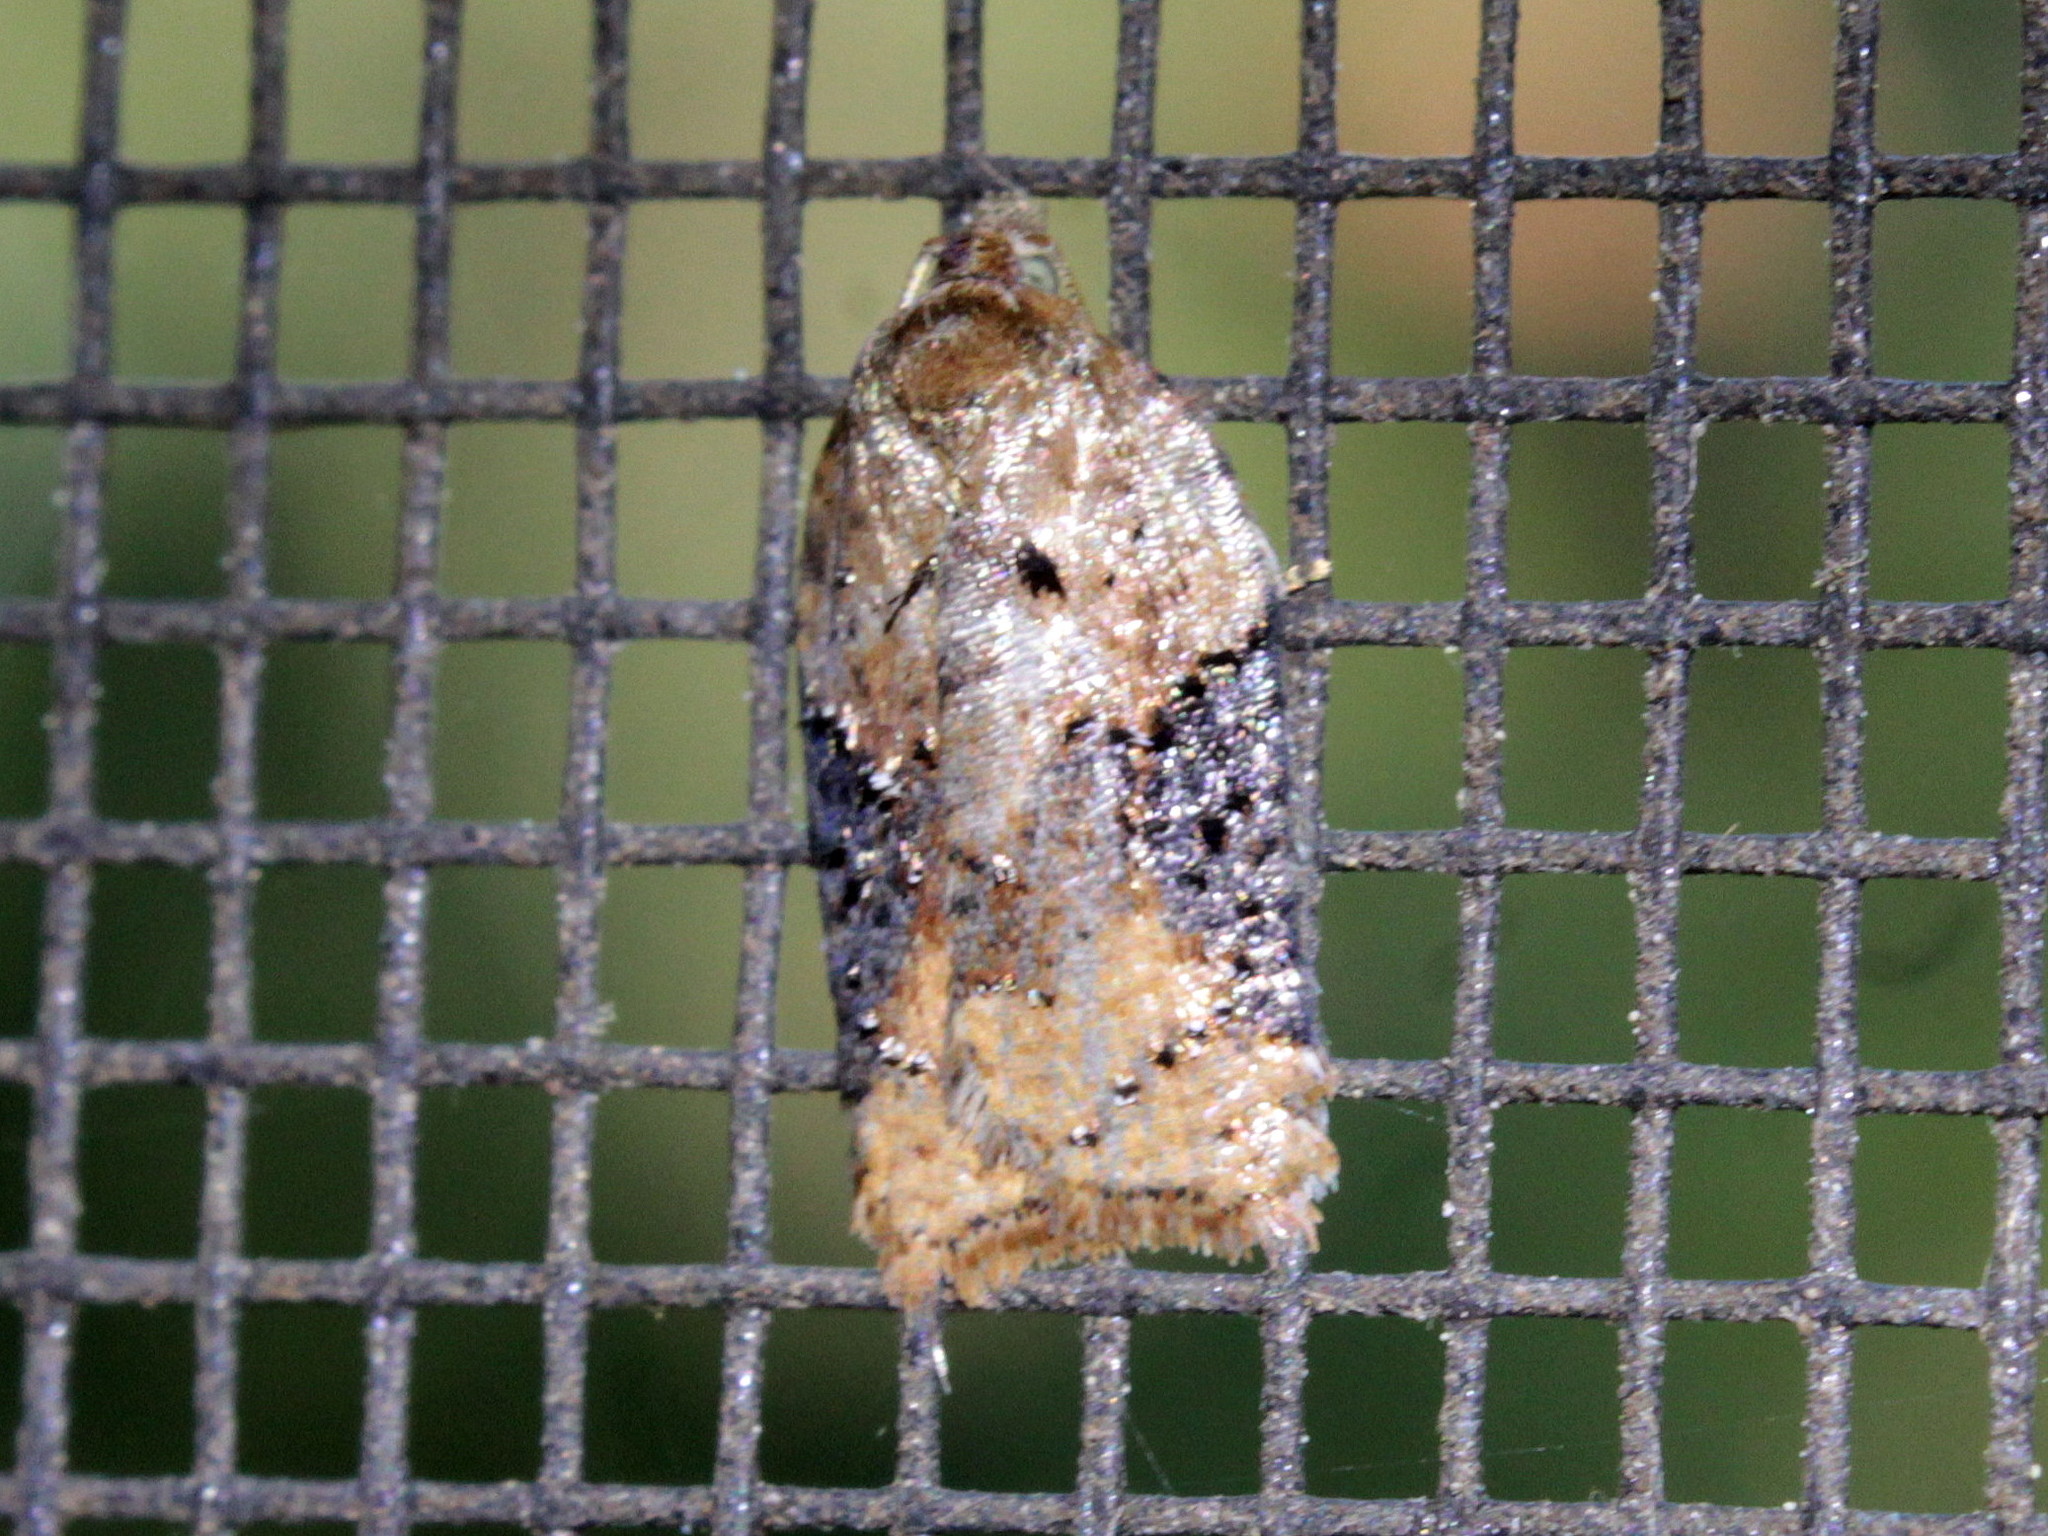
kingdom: Animalia
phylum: Arthropoda
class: Insecta
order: Lepidoptera
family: Tortricidae
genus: Acleris
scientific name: Acleris braunana
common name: Alder leafroller
